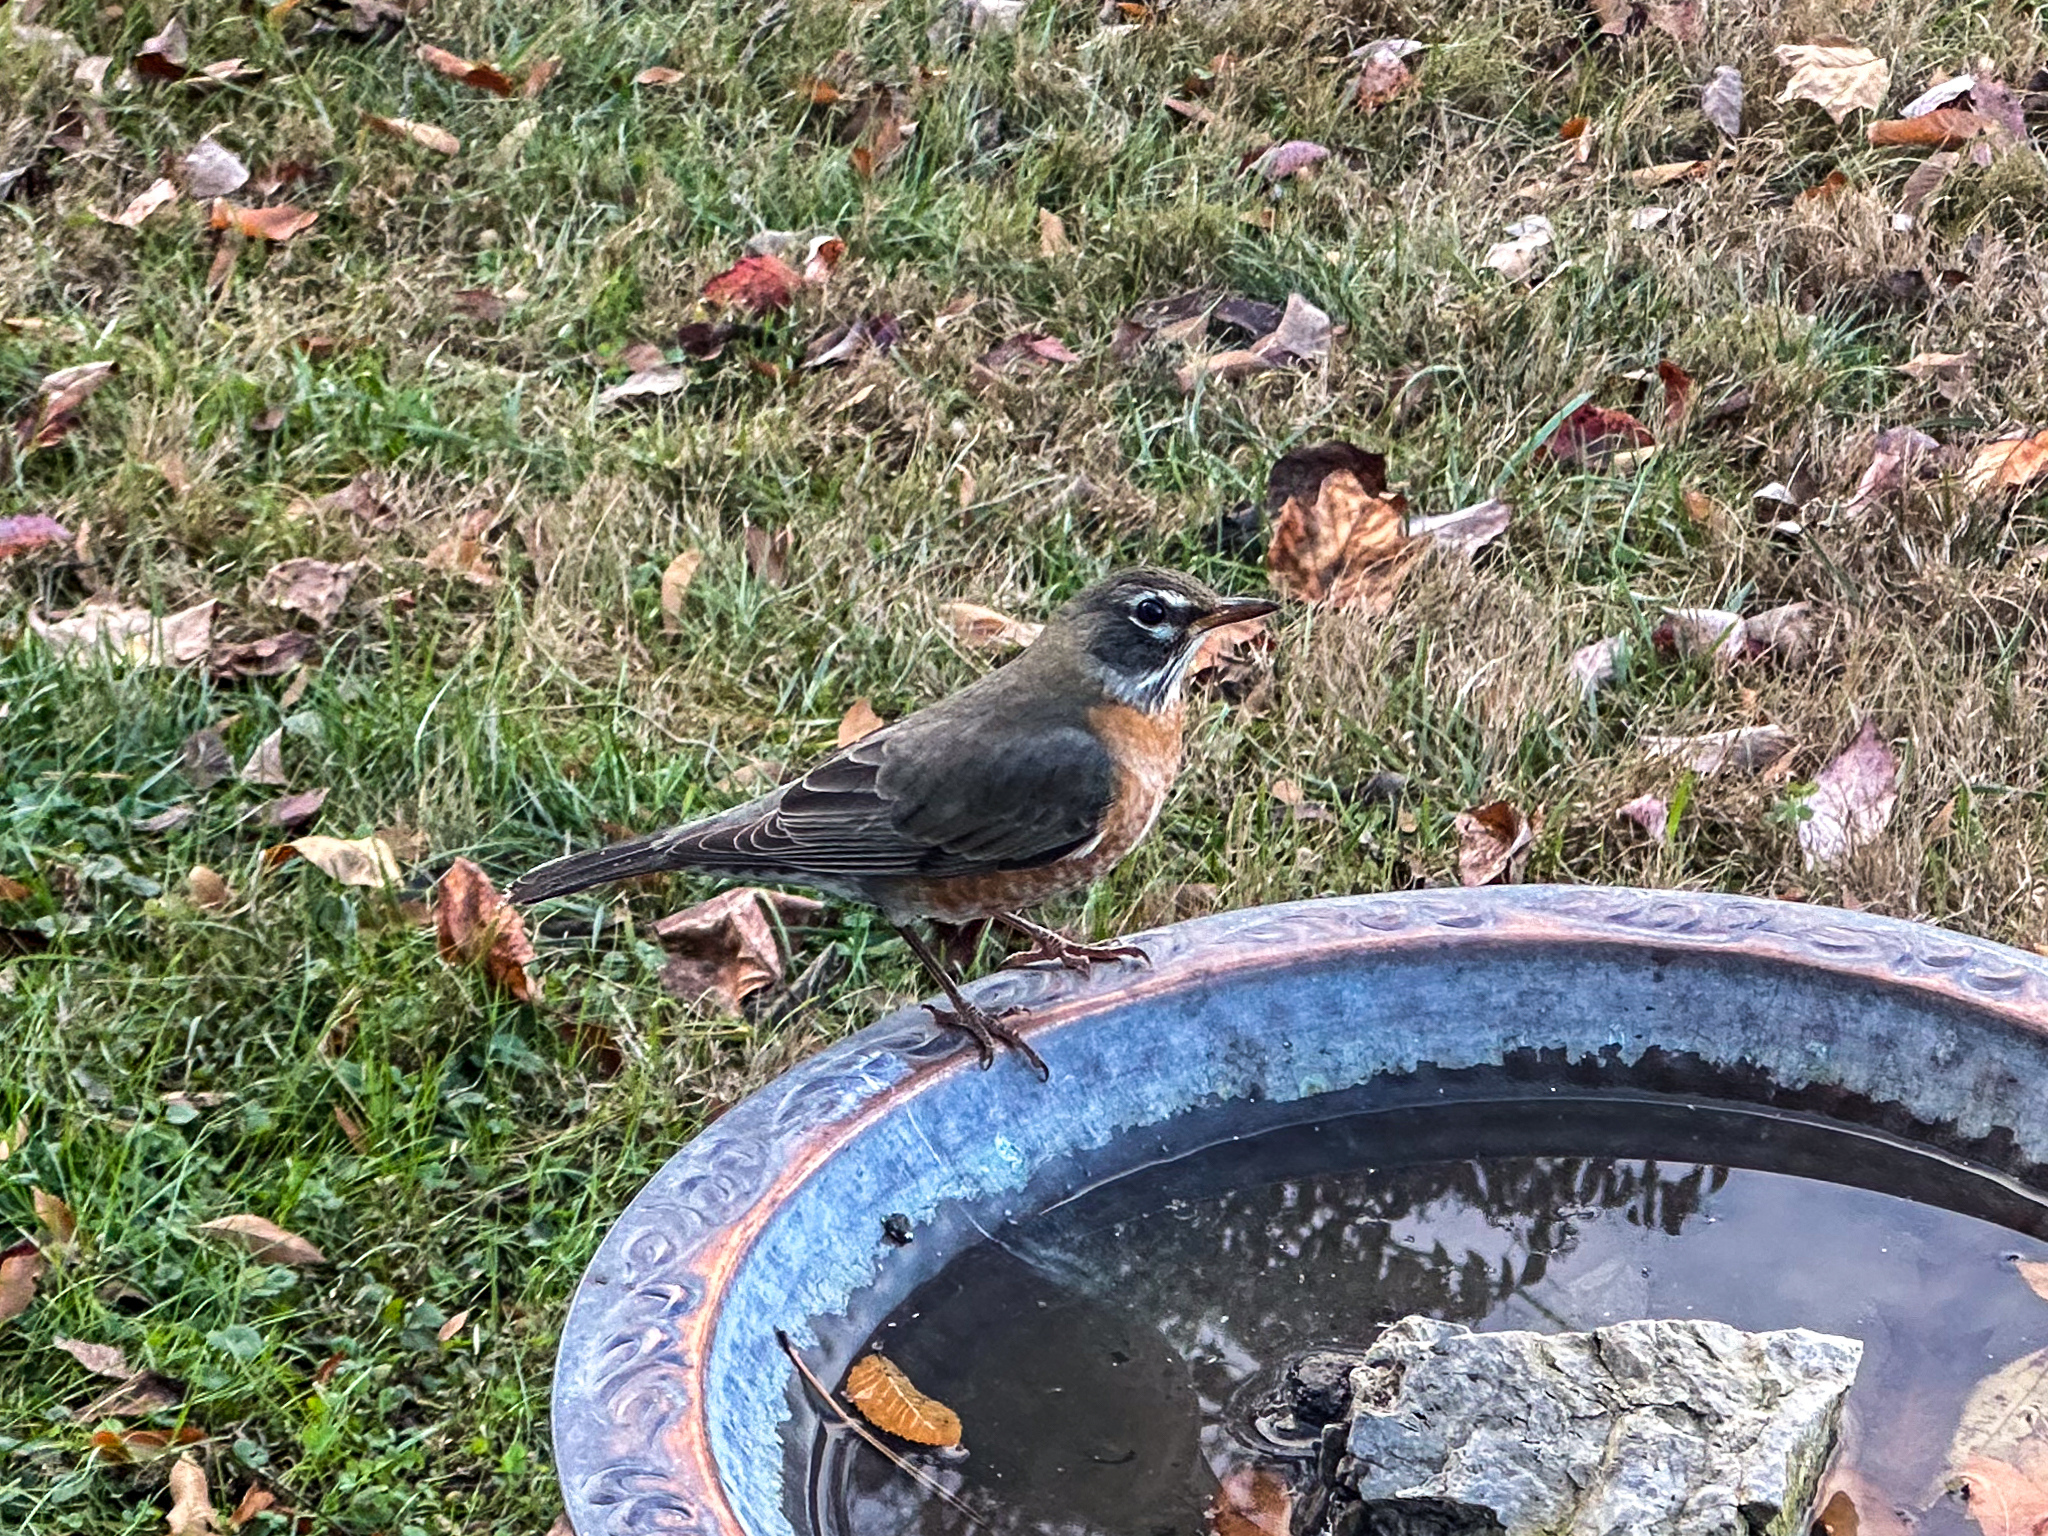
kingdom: Animalia
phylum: Chordata
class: Aves
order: Passeriformes
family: Turdidae
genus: Turdus
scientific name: Turdus migratorius
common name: American robin
